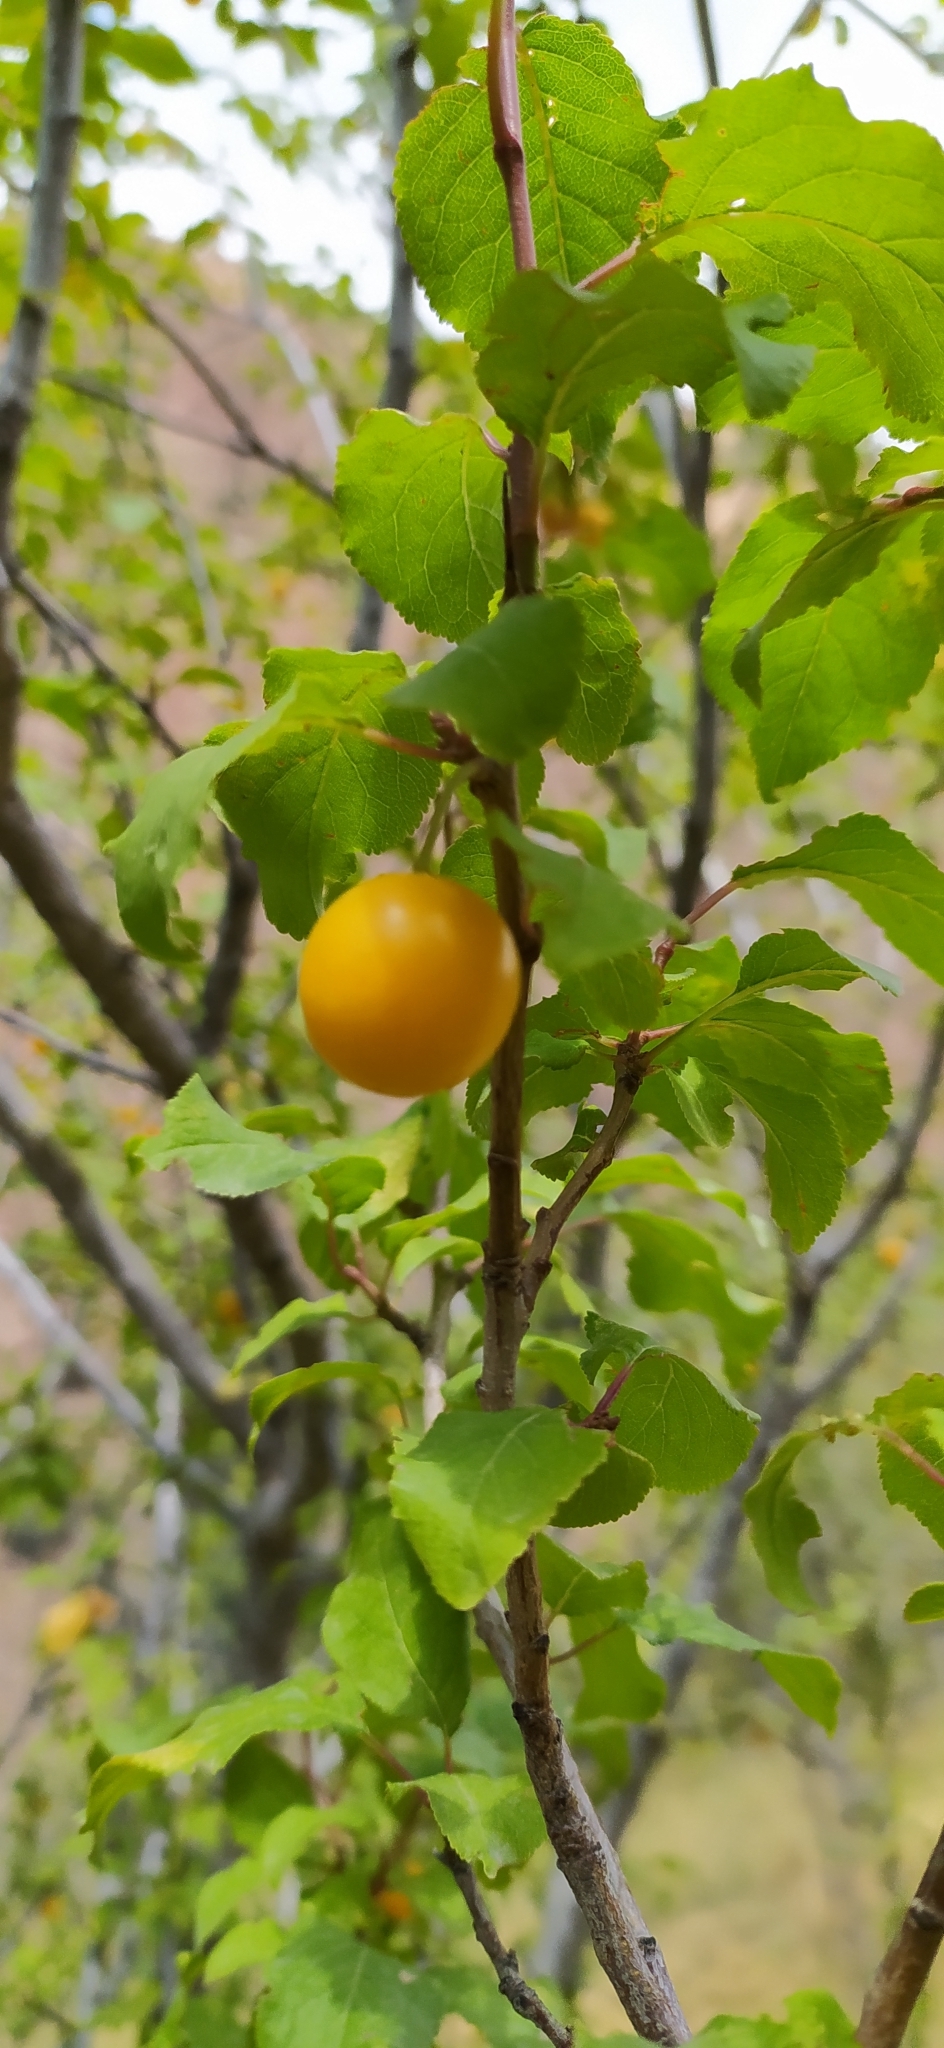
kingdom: Plantae
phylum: Tracheophyta
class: Magnoliopsida
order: Rosales
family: Rosaceae
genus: Prunus
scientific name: Prunus cerasifera
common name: Cherry plum
